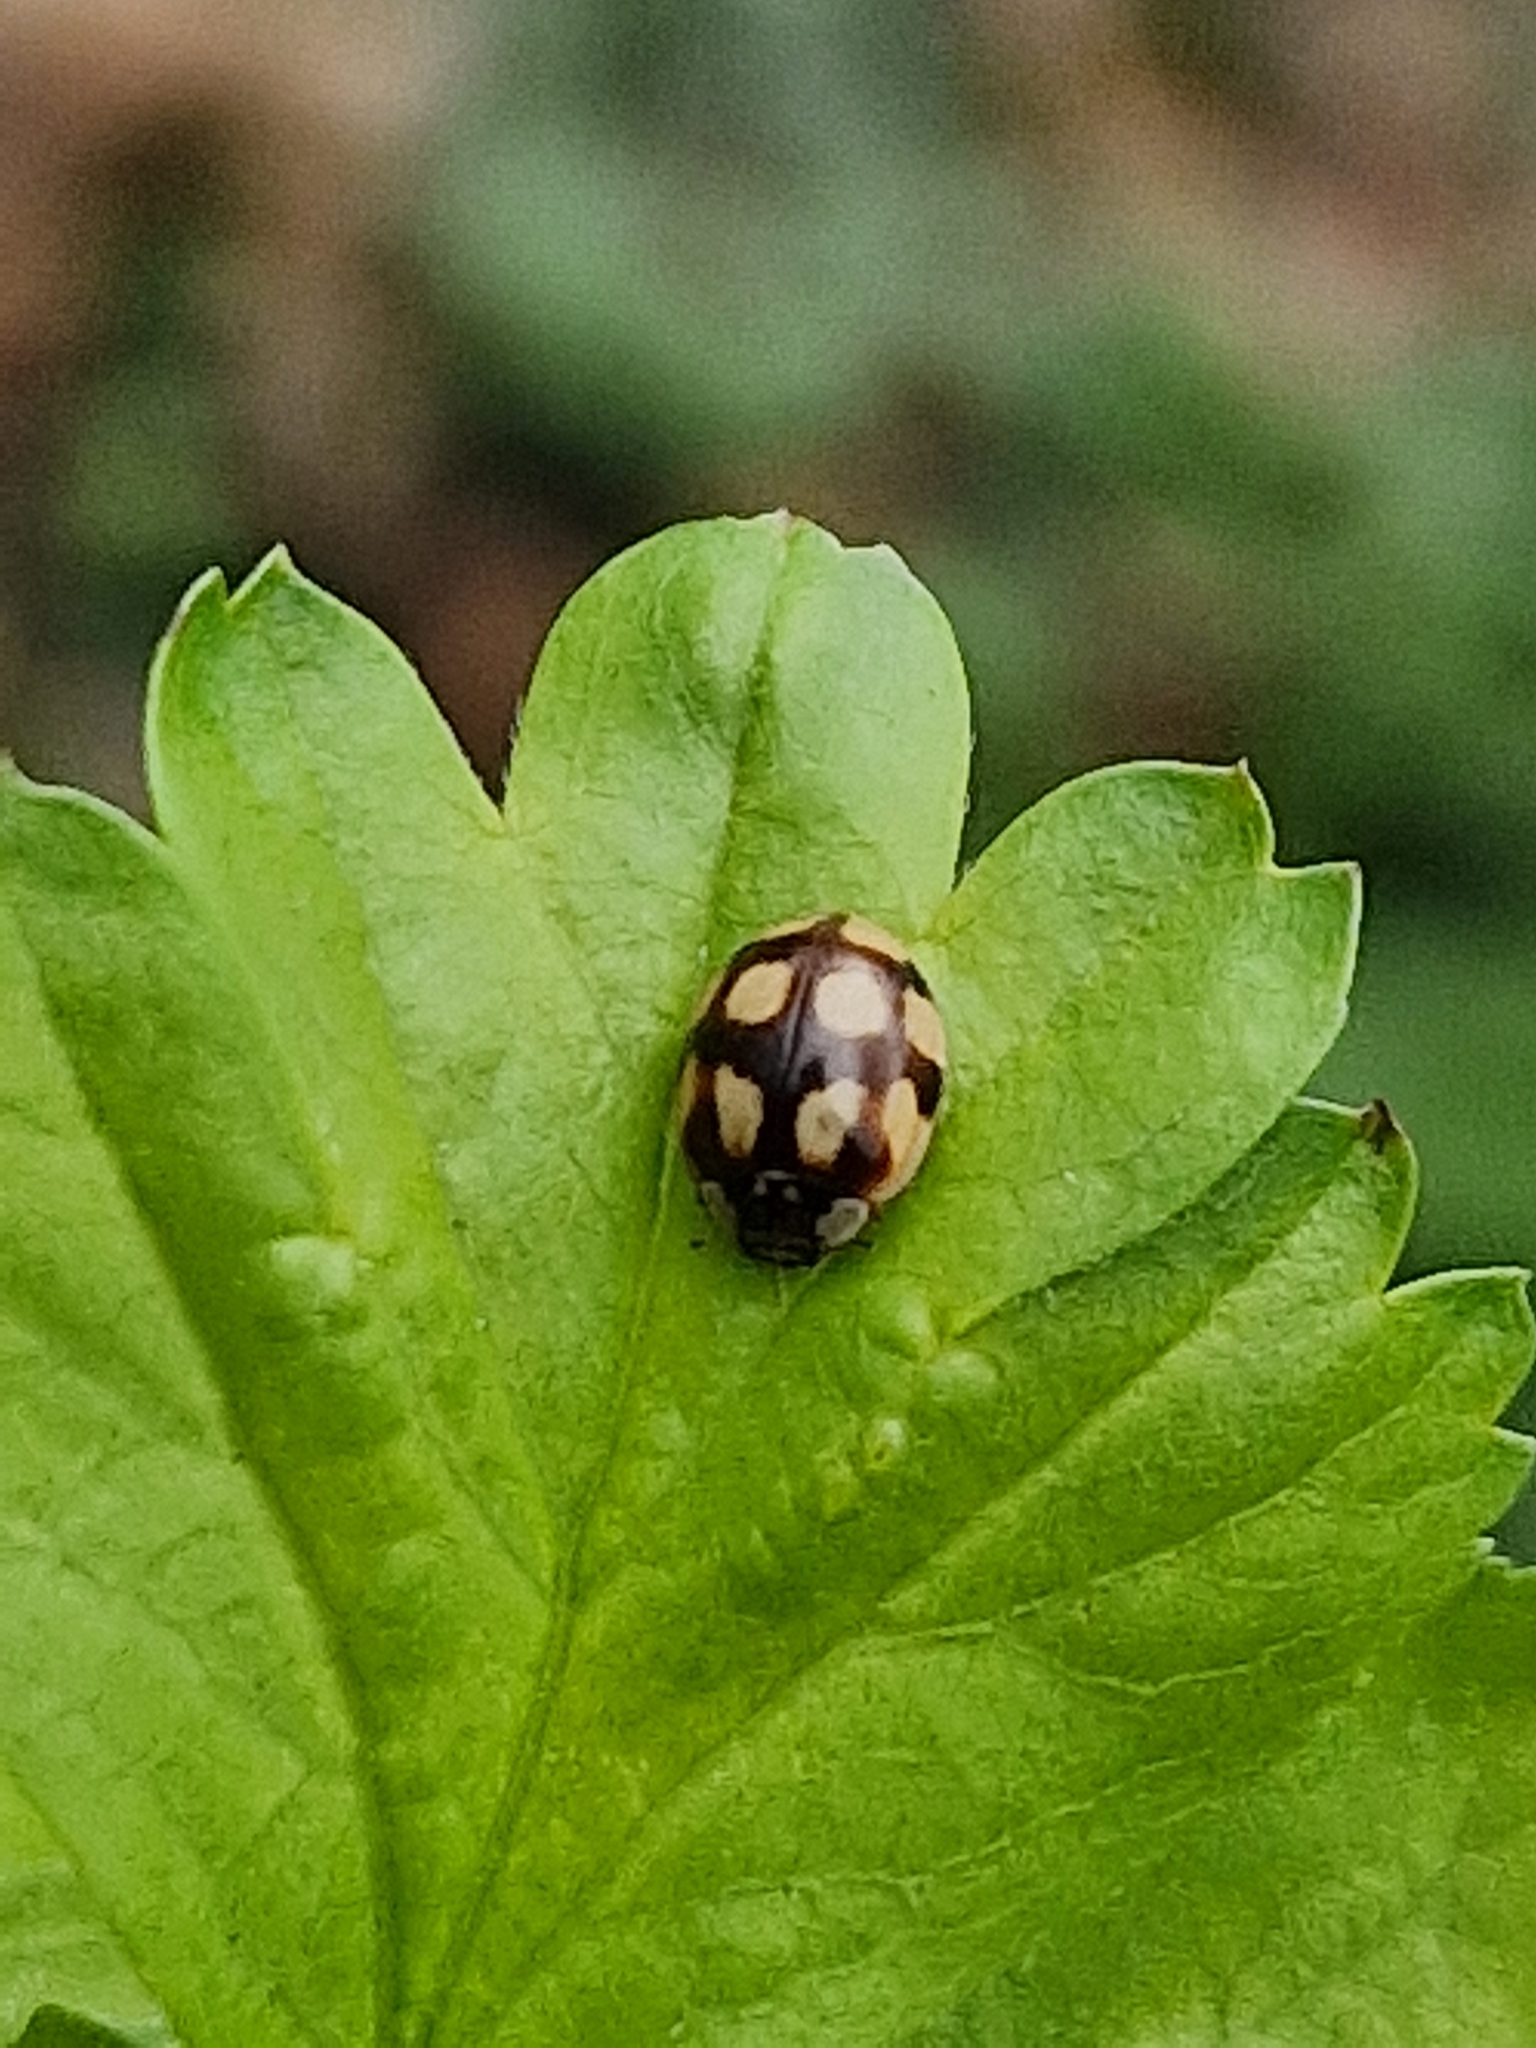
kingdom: Animalia
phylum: Arthropoda
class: Insecta
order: Coleoptera
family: Coccinellidae
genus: Adalia
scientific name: Adalia decempunctata
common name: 10-spot ladybird
